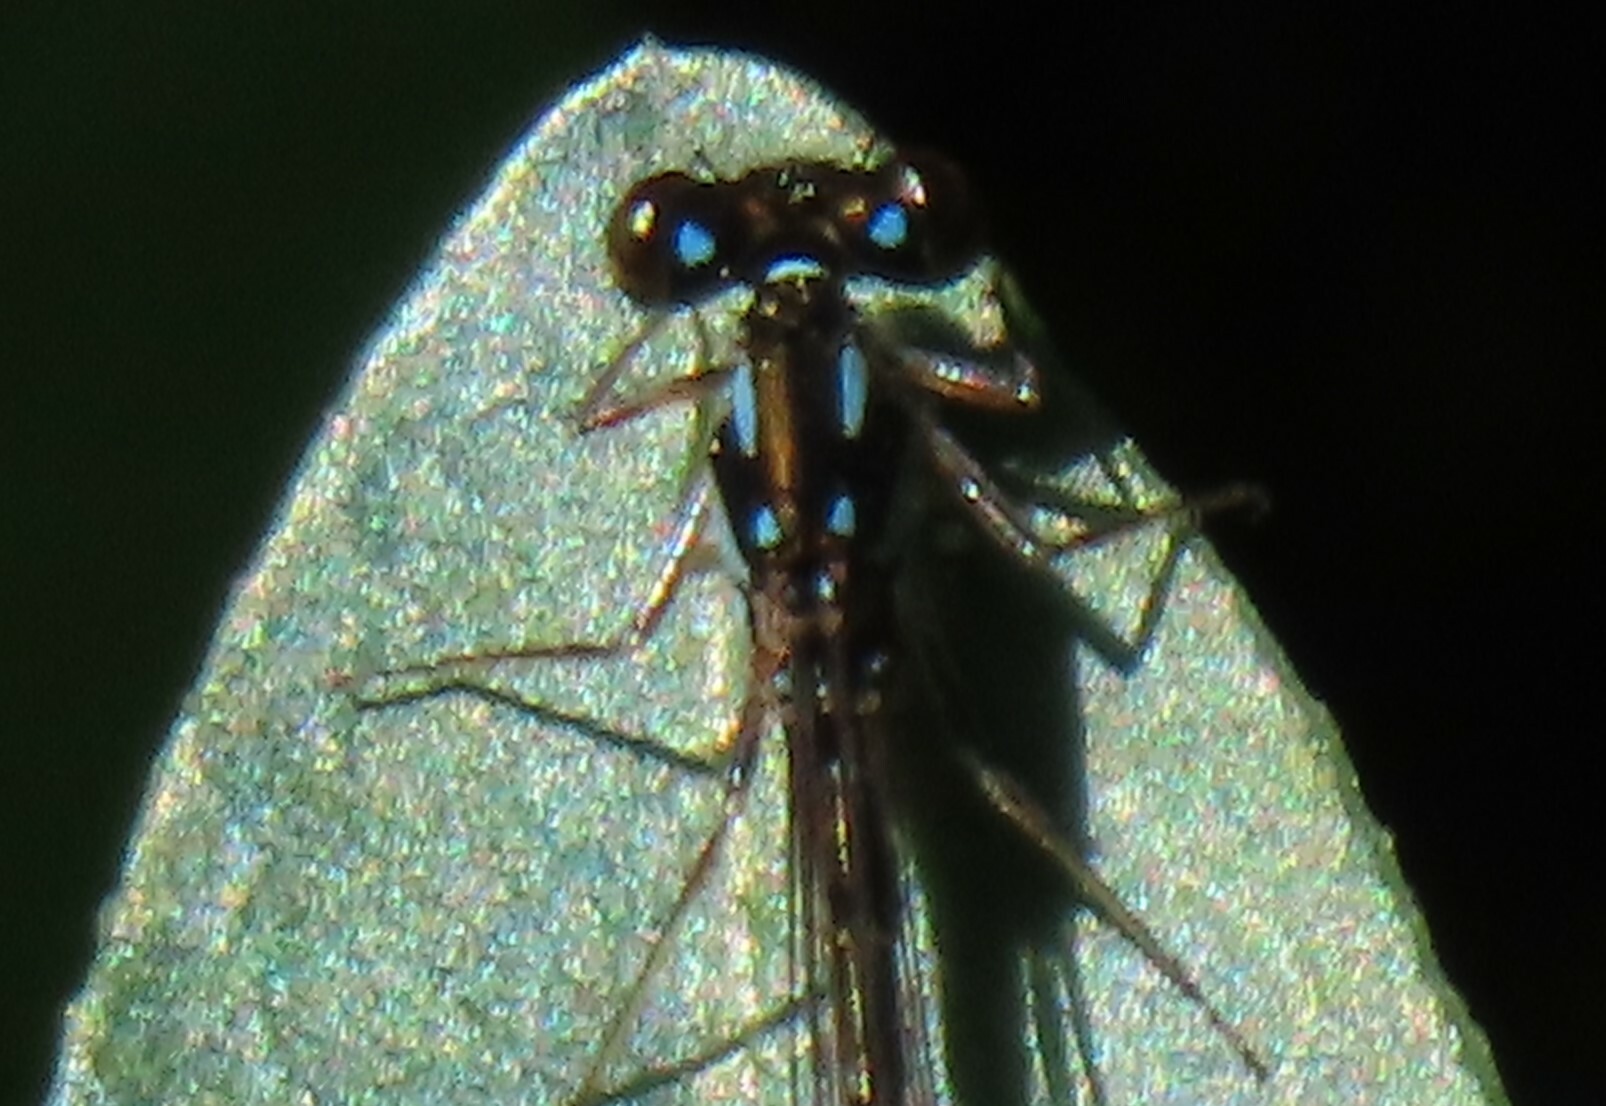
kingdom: Animalia
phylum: Arthropoda
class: Insecta
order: Odonata
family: Coenagrionidae
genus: Ischnura
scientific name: Ischnura posita
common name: Fragile forktail
